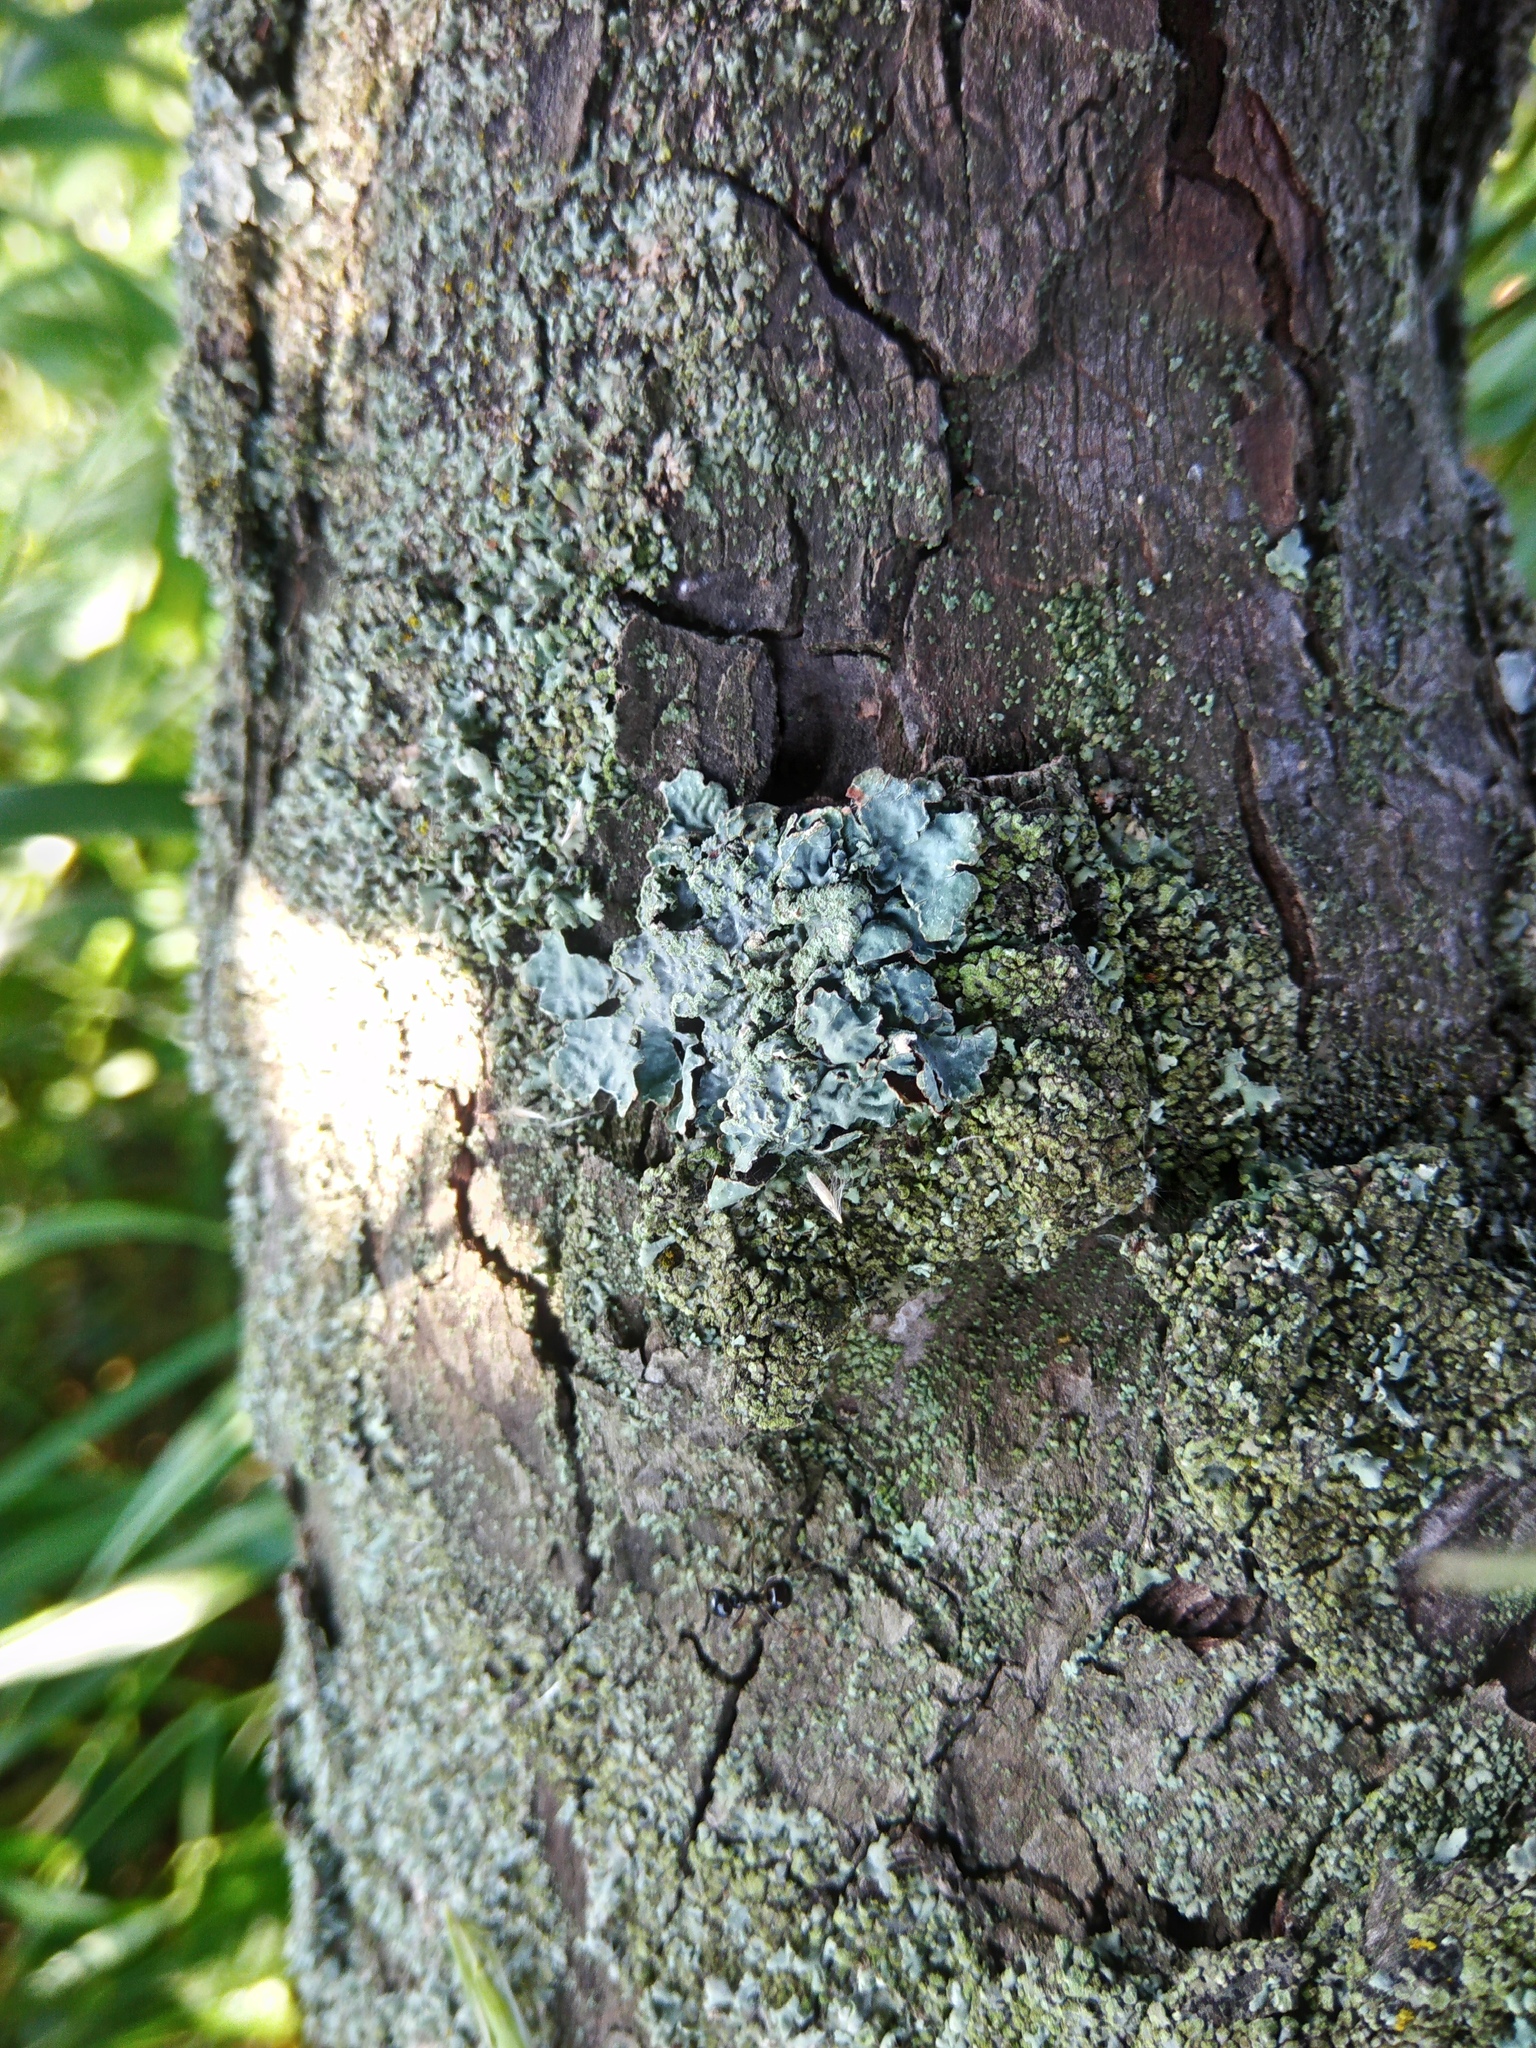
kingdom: Fungi
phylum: Ascomycota
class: Lecanoromycetes
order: Lecanorales
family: Parmeliaceae
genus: Parmelia
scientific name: Parmelia sulcata
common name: Netted shield lichen
